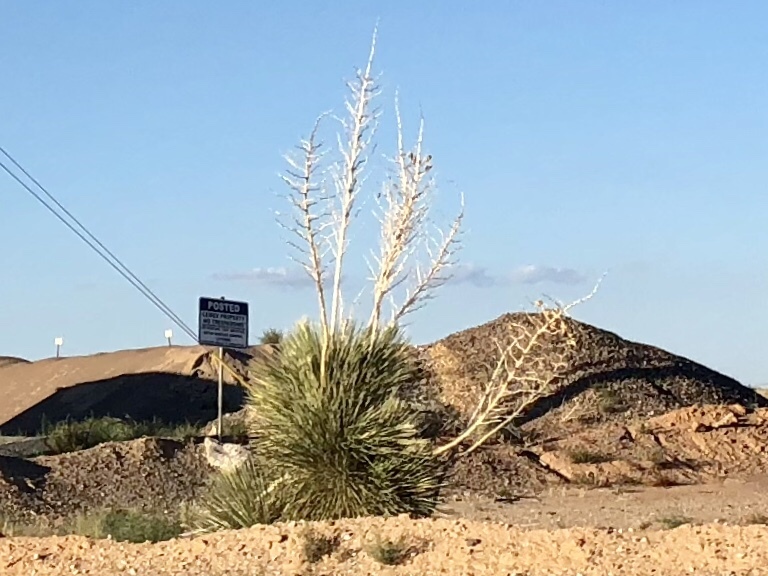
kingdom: Plantae
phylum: Tracheophyta
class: Liliopsida
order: Asparagales
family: Asparagaceae
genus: Yucca
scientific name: Yucca elata
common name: Palmella
